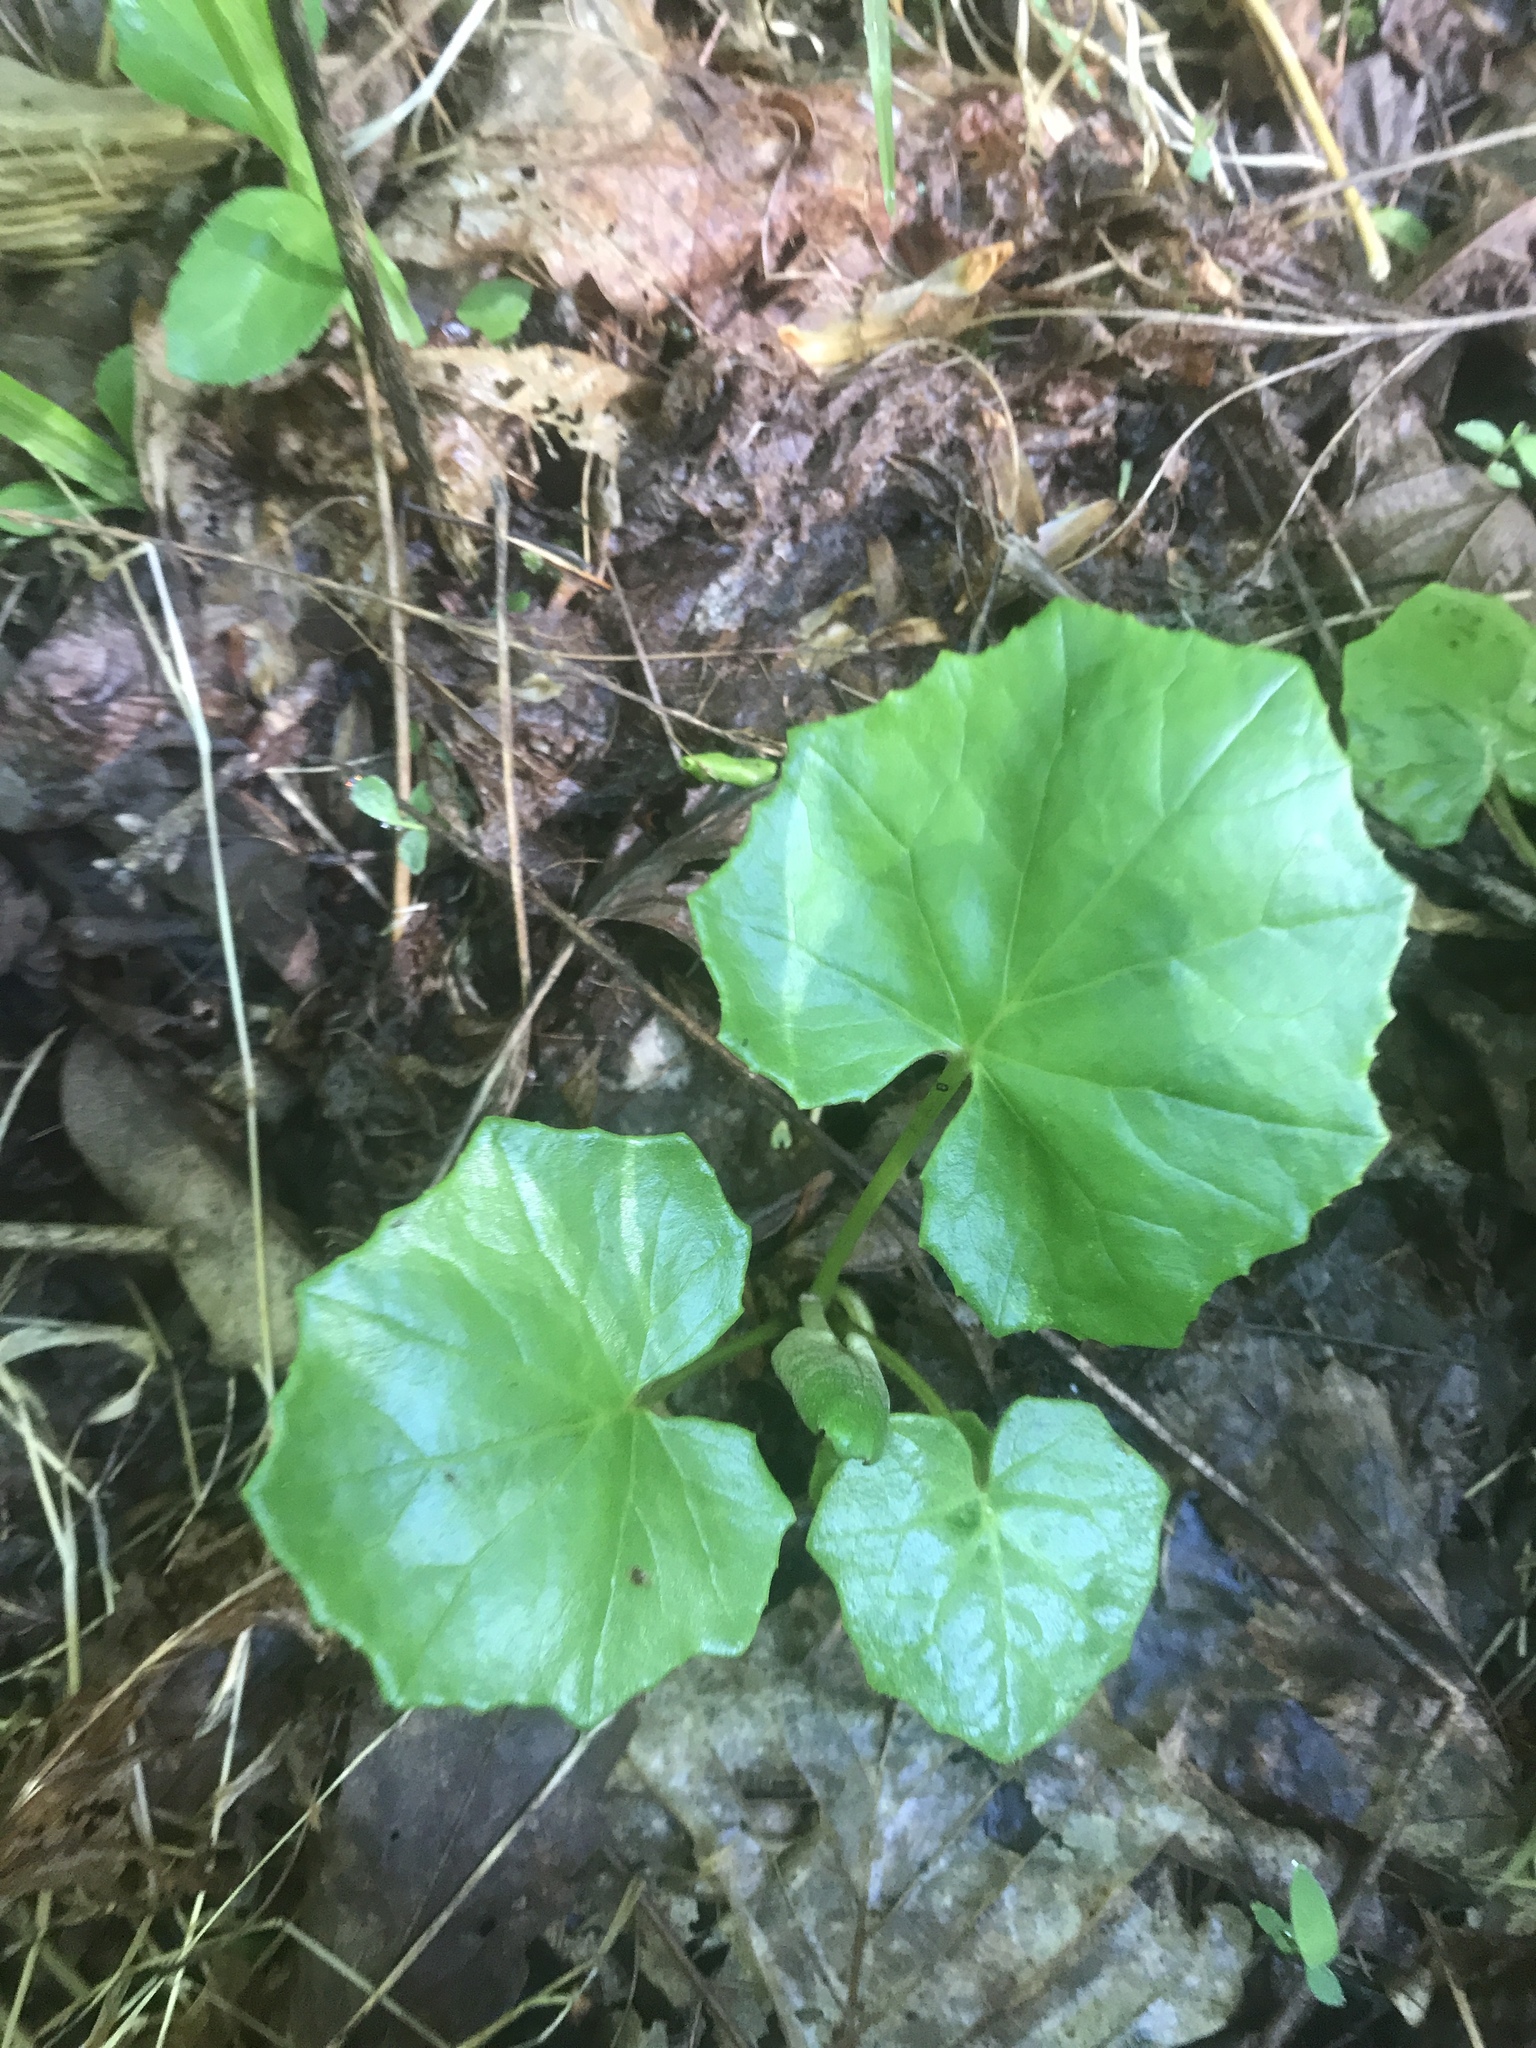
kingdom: Plantae
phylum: Tracheophyta
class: Magnoliopsida
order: Asterales
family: Asteraceae
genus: Tussilago
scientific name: Tussilago farfara
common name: Coltsfoot
